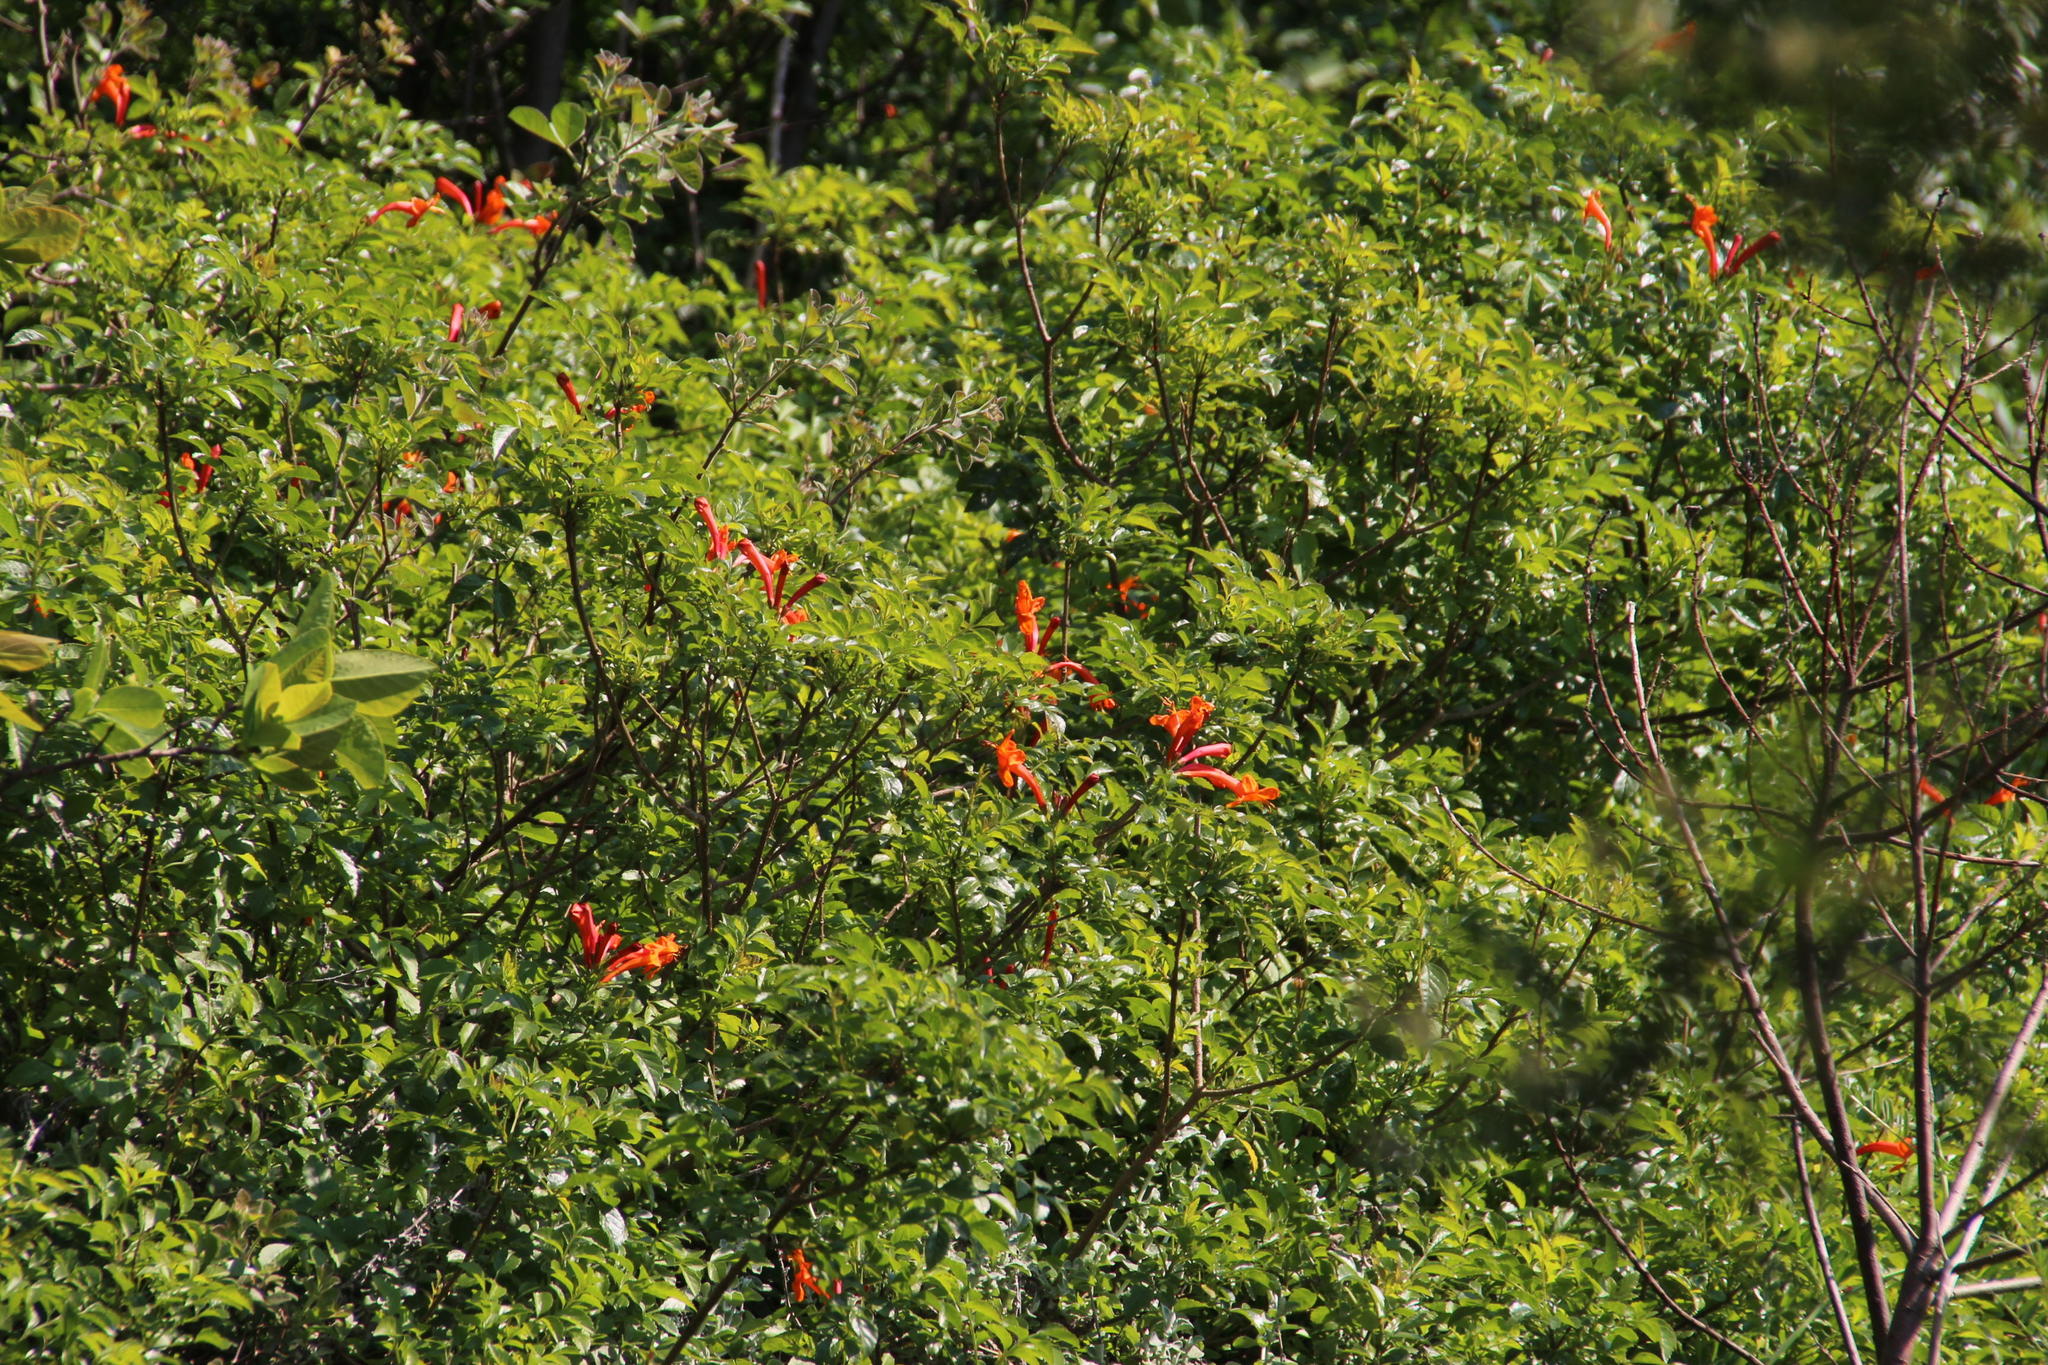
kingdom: Plantae
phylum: Tracheophyta
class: Magnoliopsida
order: Lamiales
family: Bignoniaceae
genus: Tecomaria
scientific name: Tecomaria capensis
